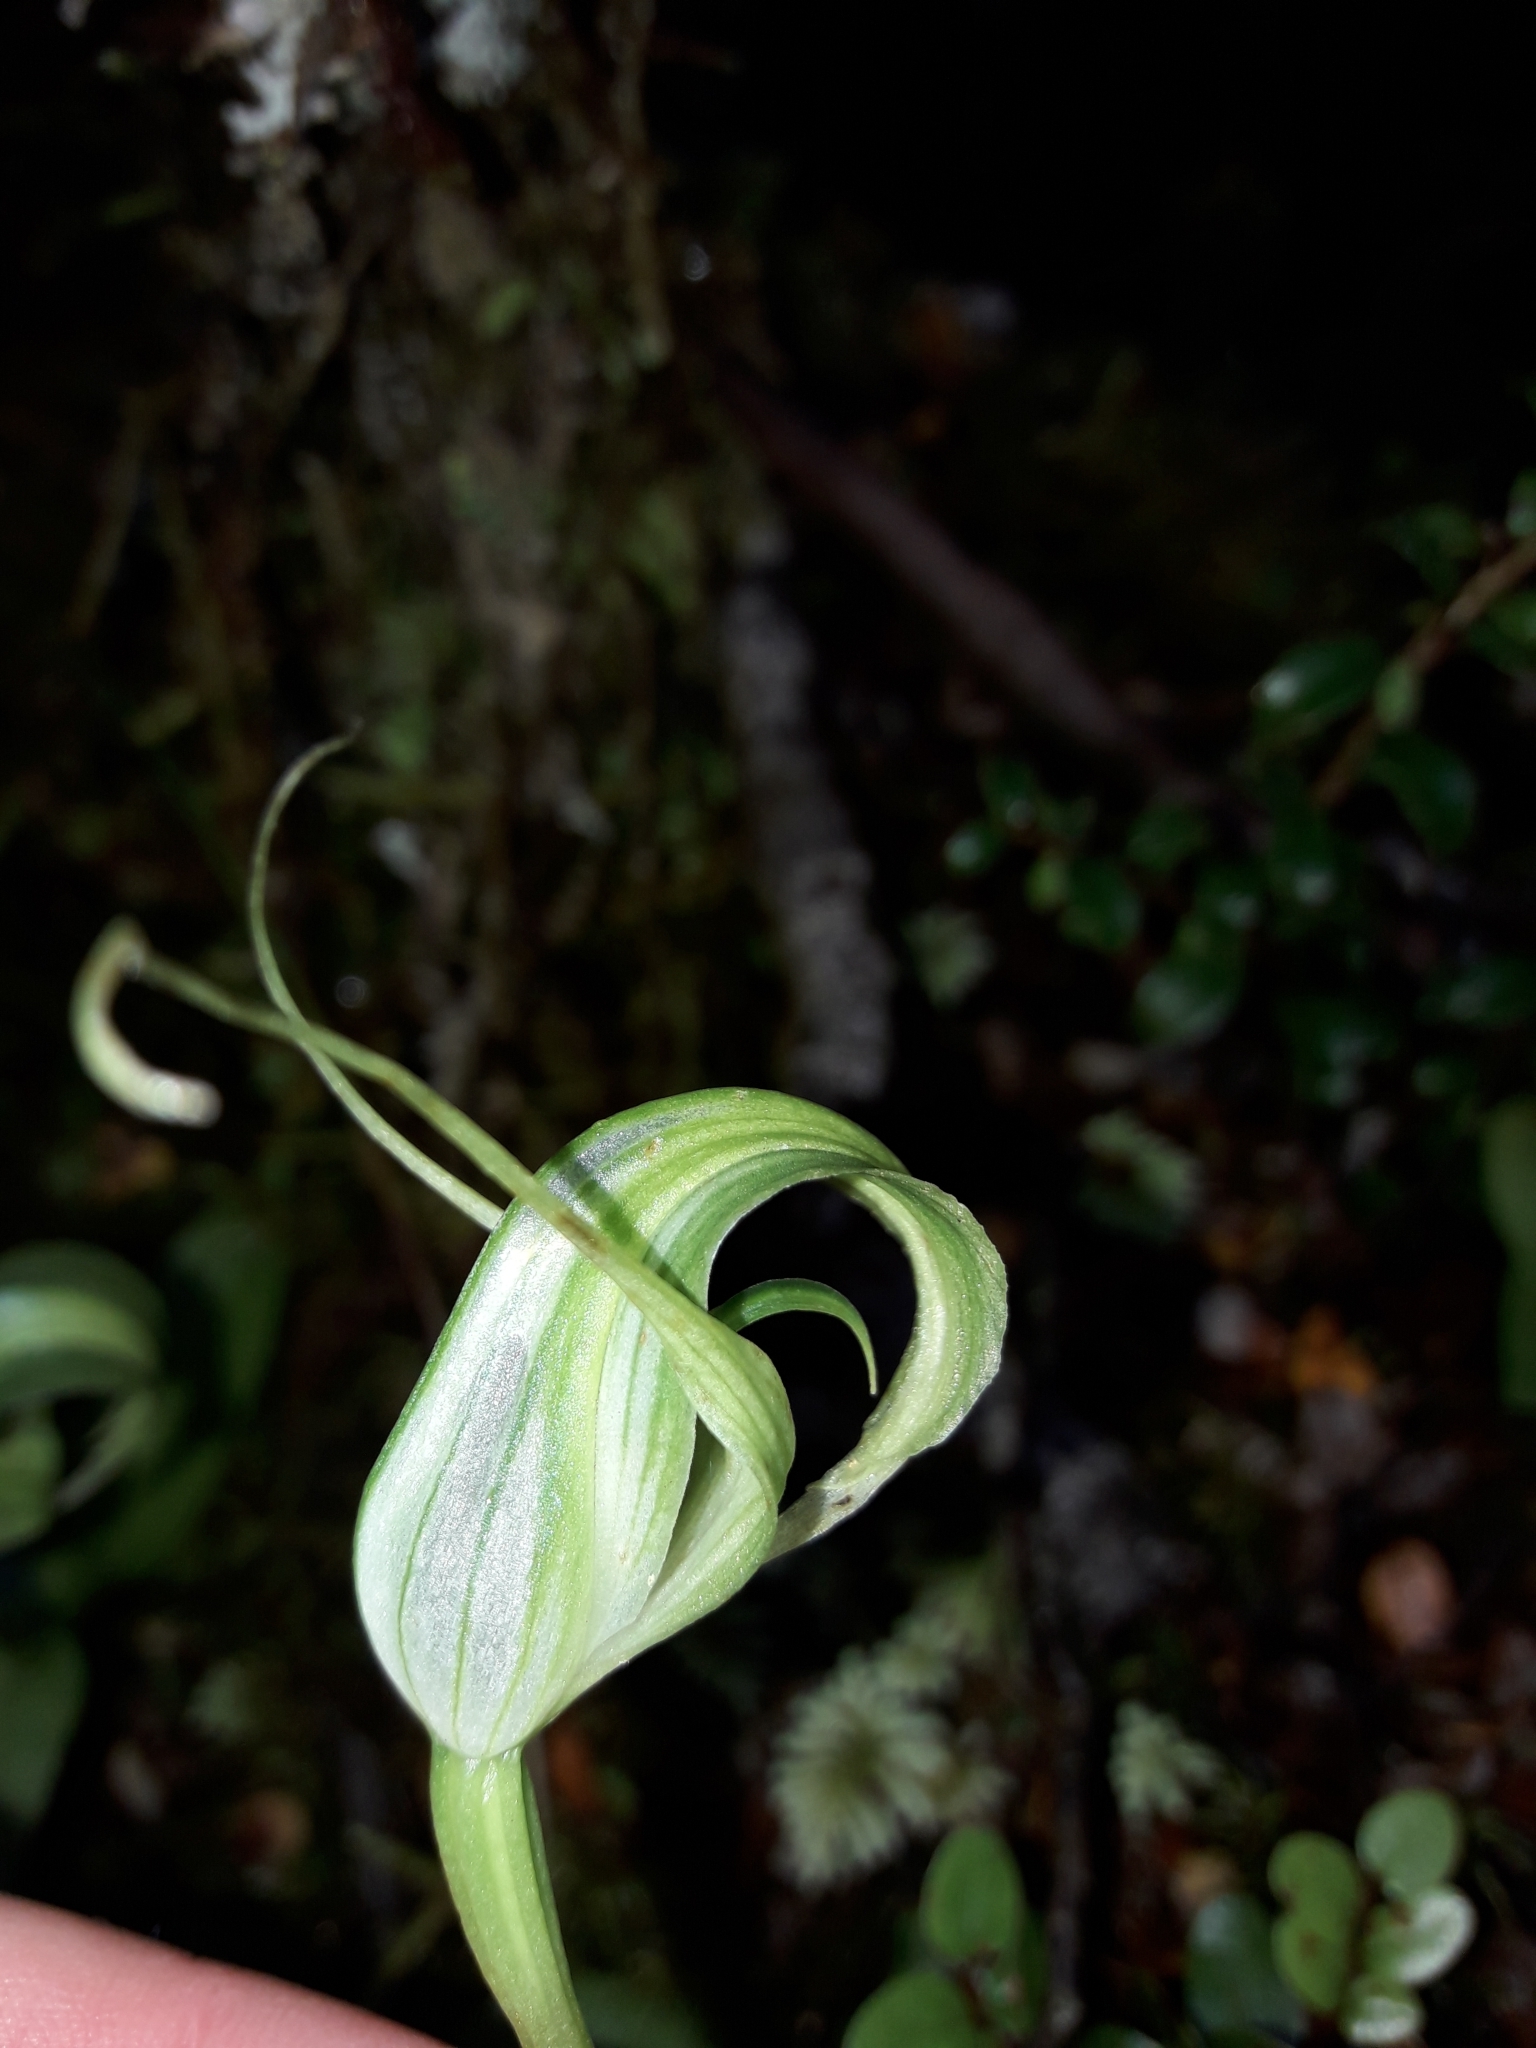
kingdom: Plantae
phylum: Tracheophyta
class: Liliopsida
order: Asparagales
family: Orchidaceae
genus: Pterostylis
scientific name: Pterostylis oliveri
